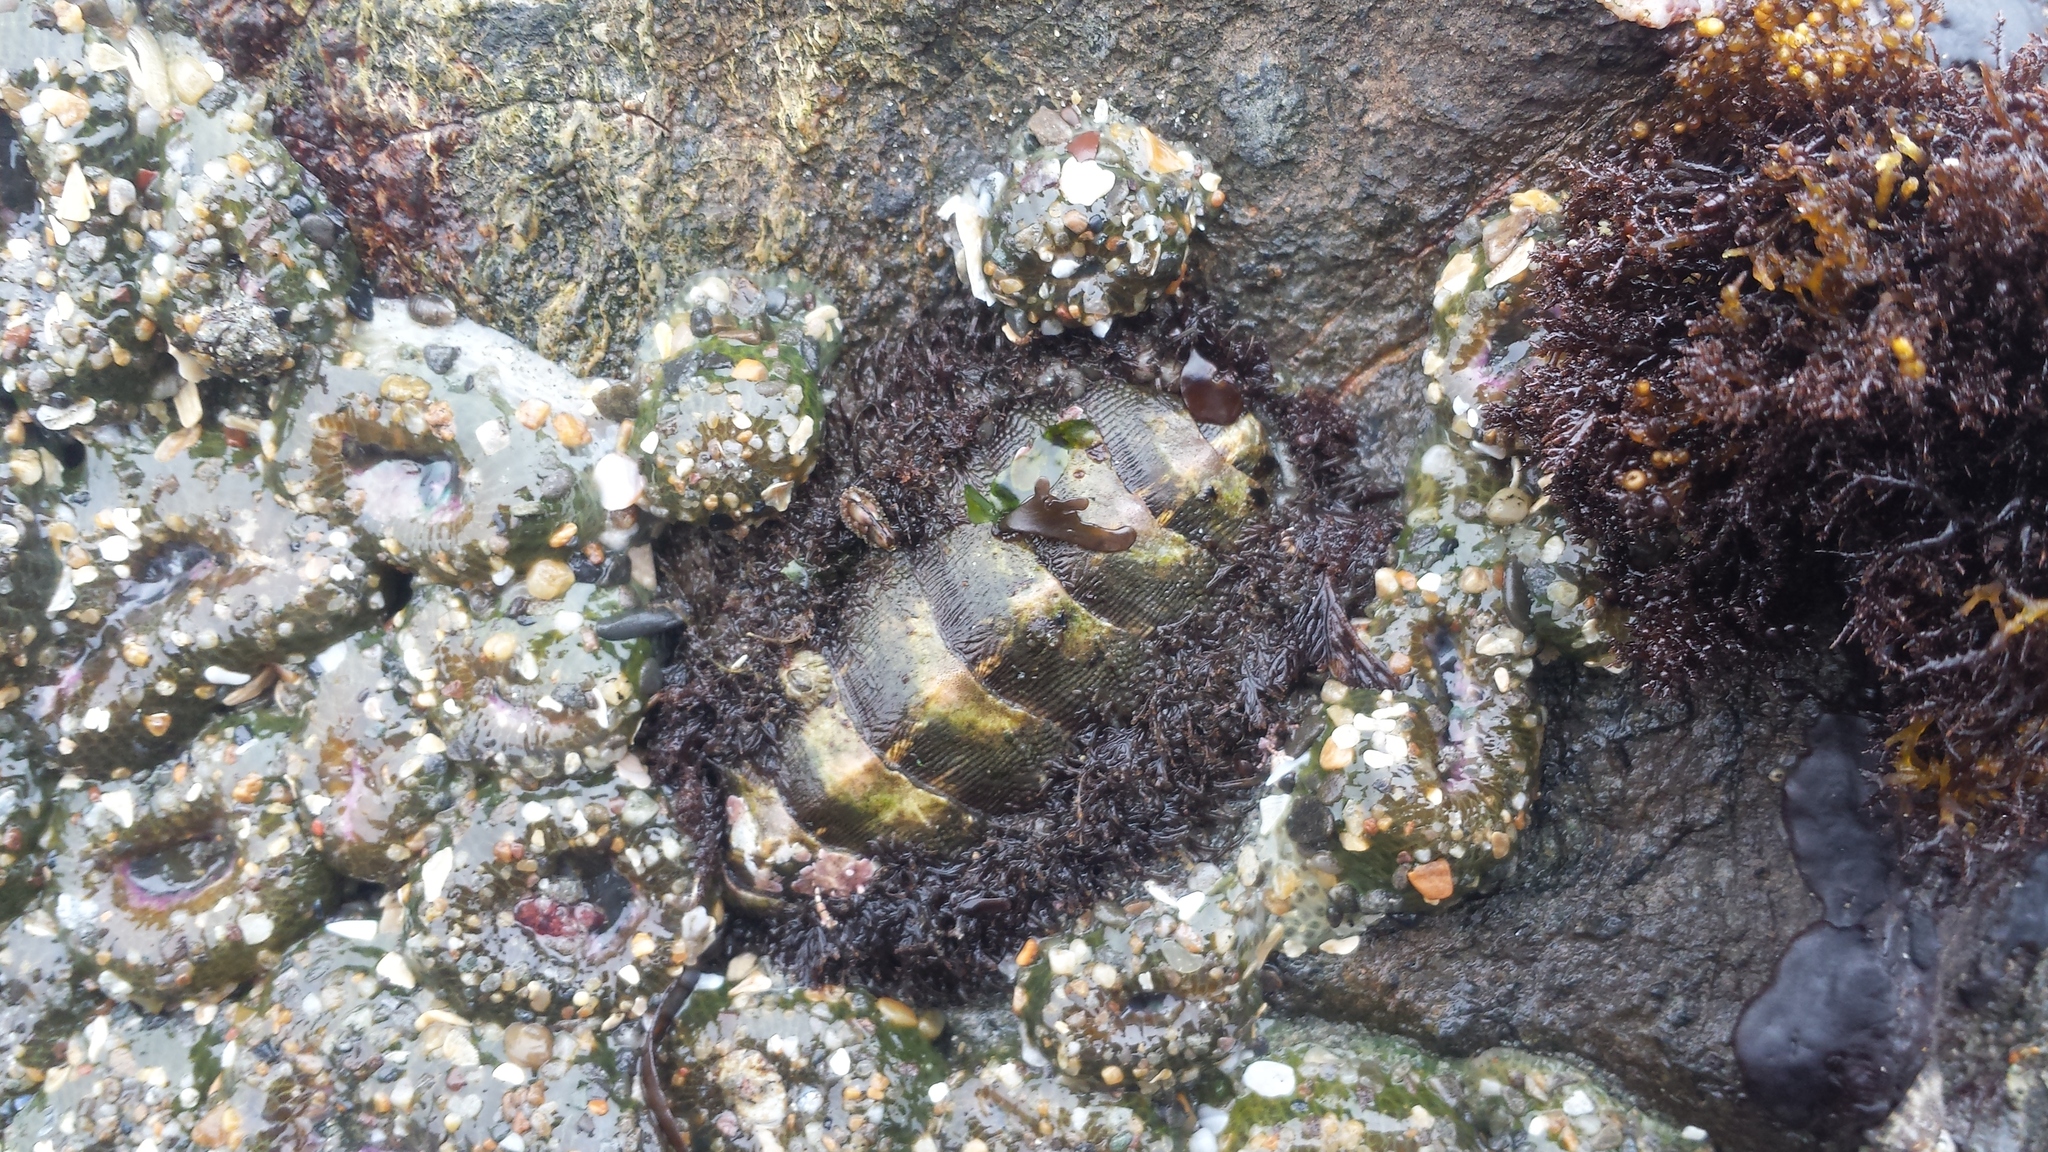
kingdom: Animalia
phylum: Mollusca
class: Polyplacophora
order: Chitonida
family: Mopaliidae
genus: Mopalia
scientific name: Mopalia muscosa
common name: Mossy chiton
